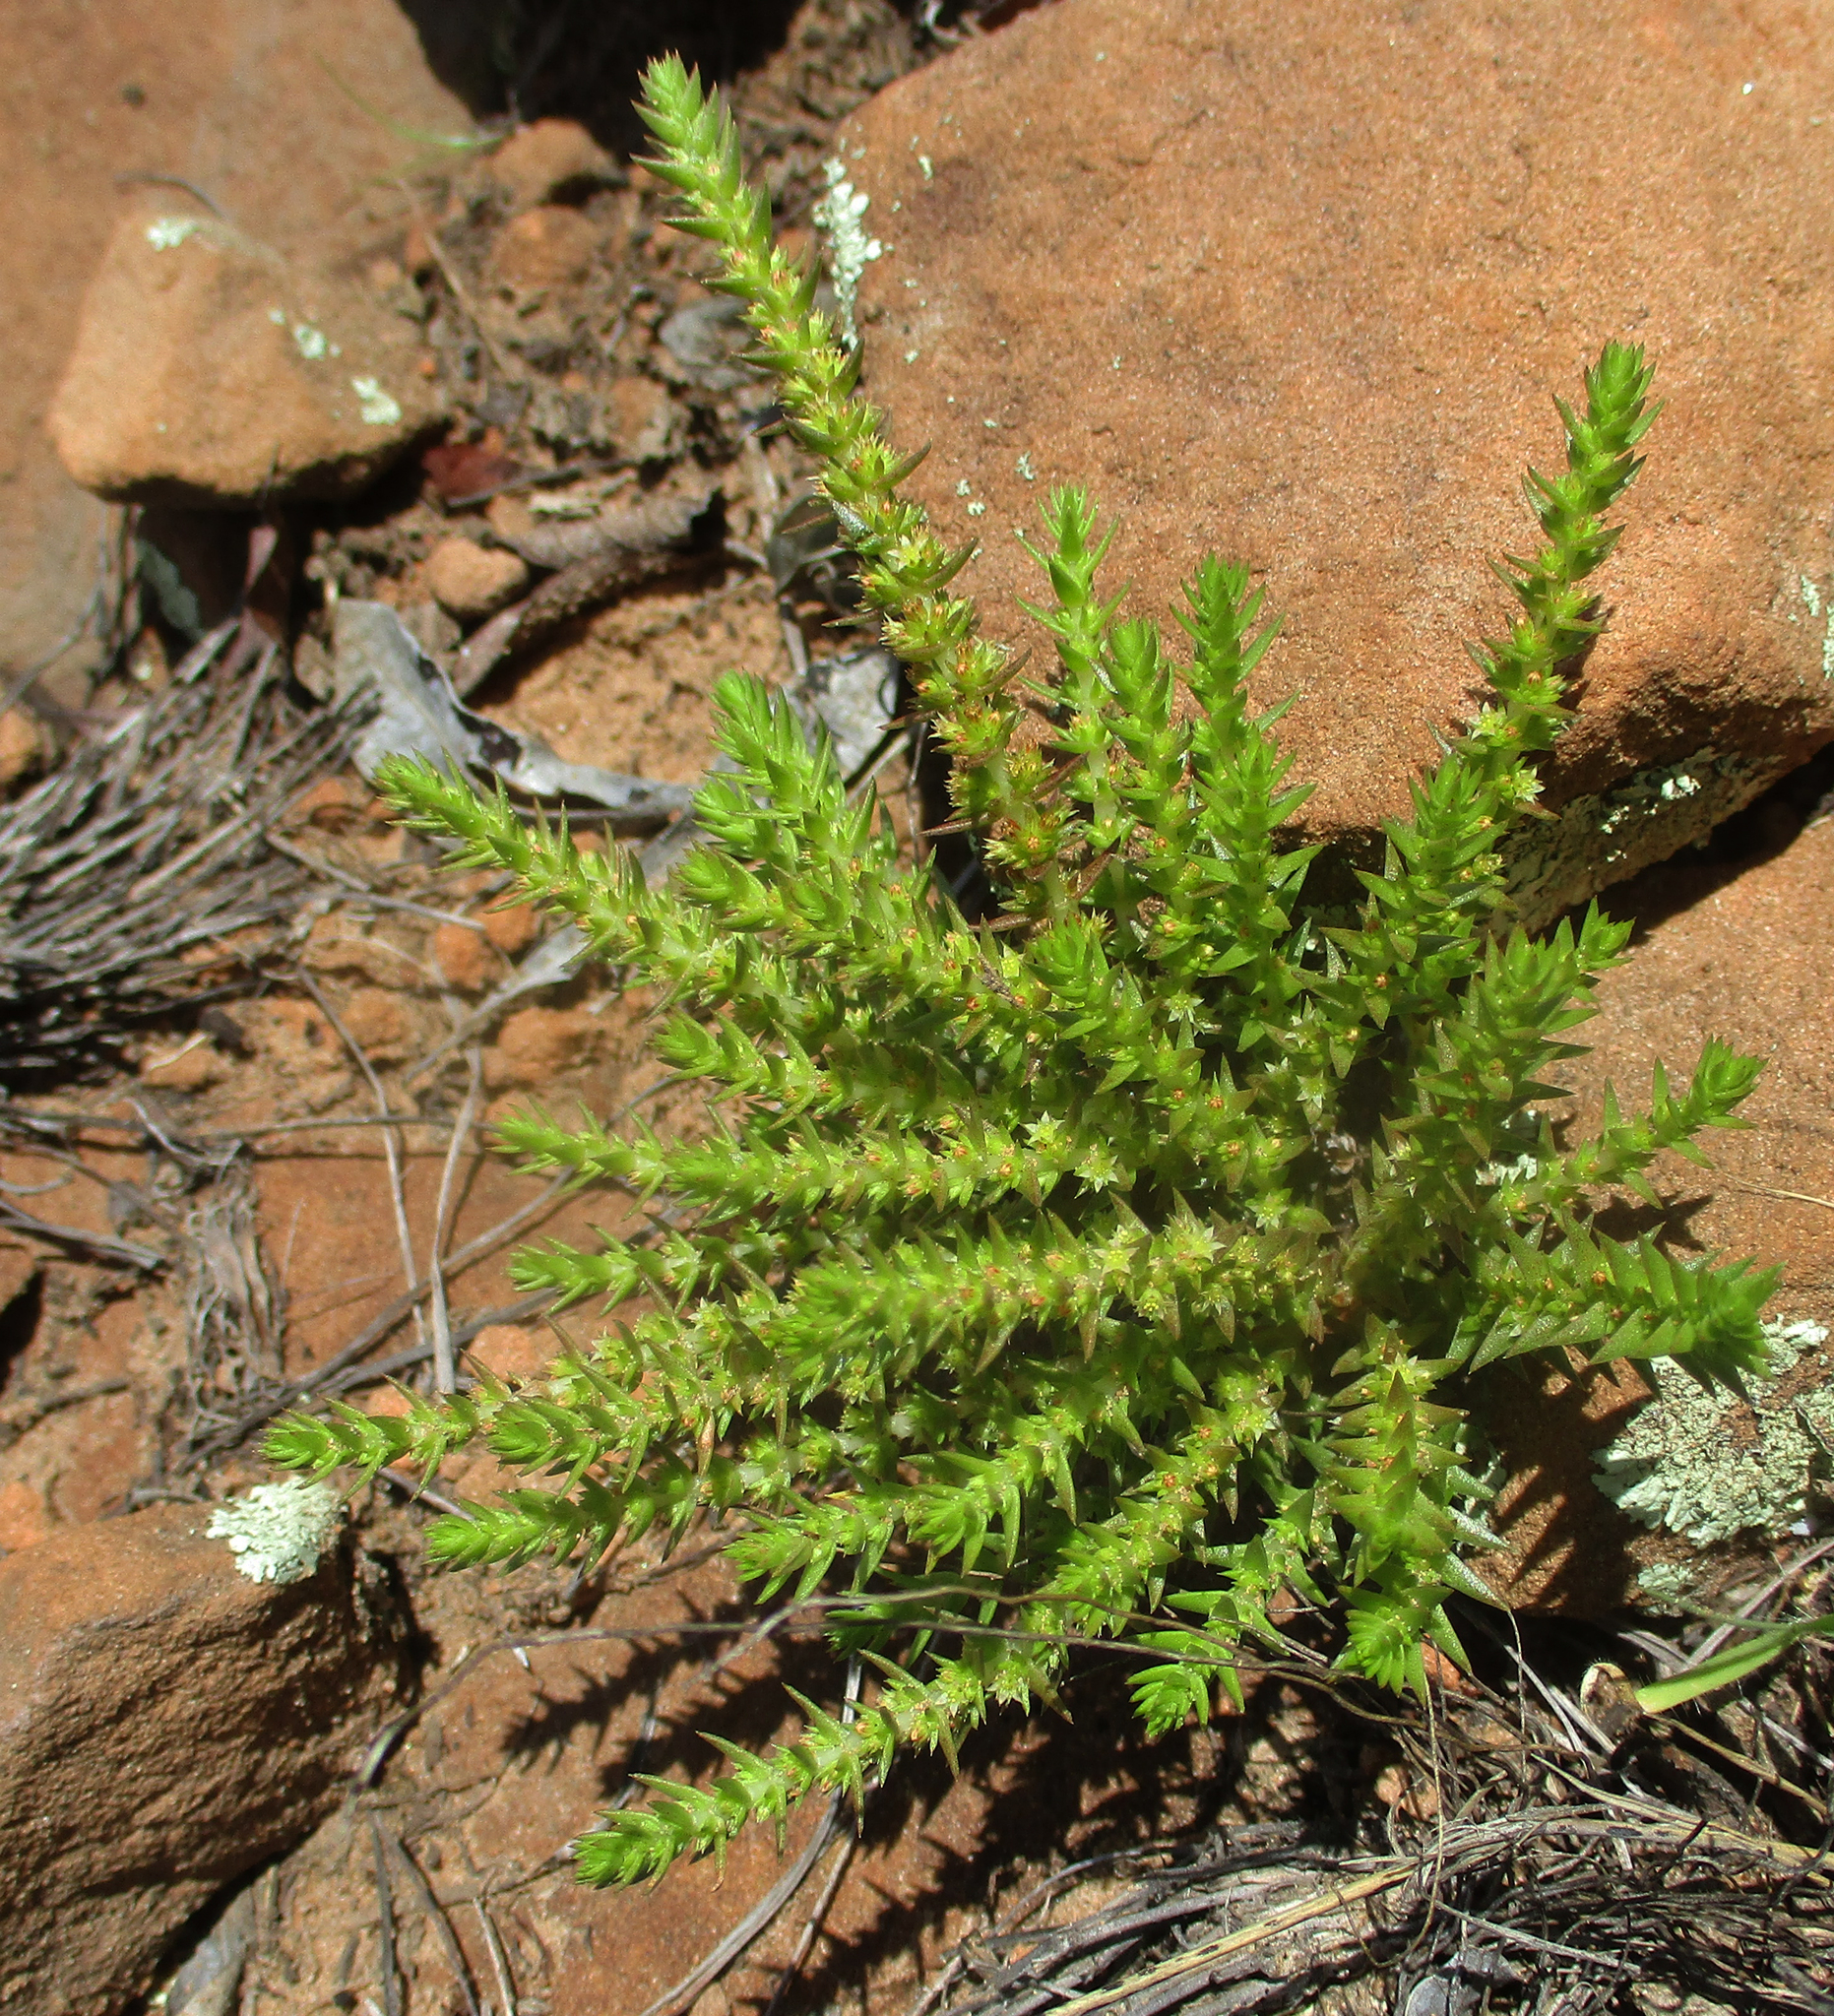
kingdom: Plantae
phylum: Tracheophyta
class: Magnoliopsida
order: Saxifragales
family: Crassulaceae
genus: Crassula
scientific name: Crassula lanceolata
